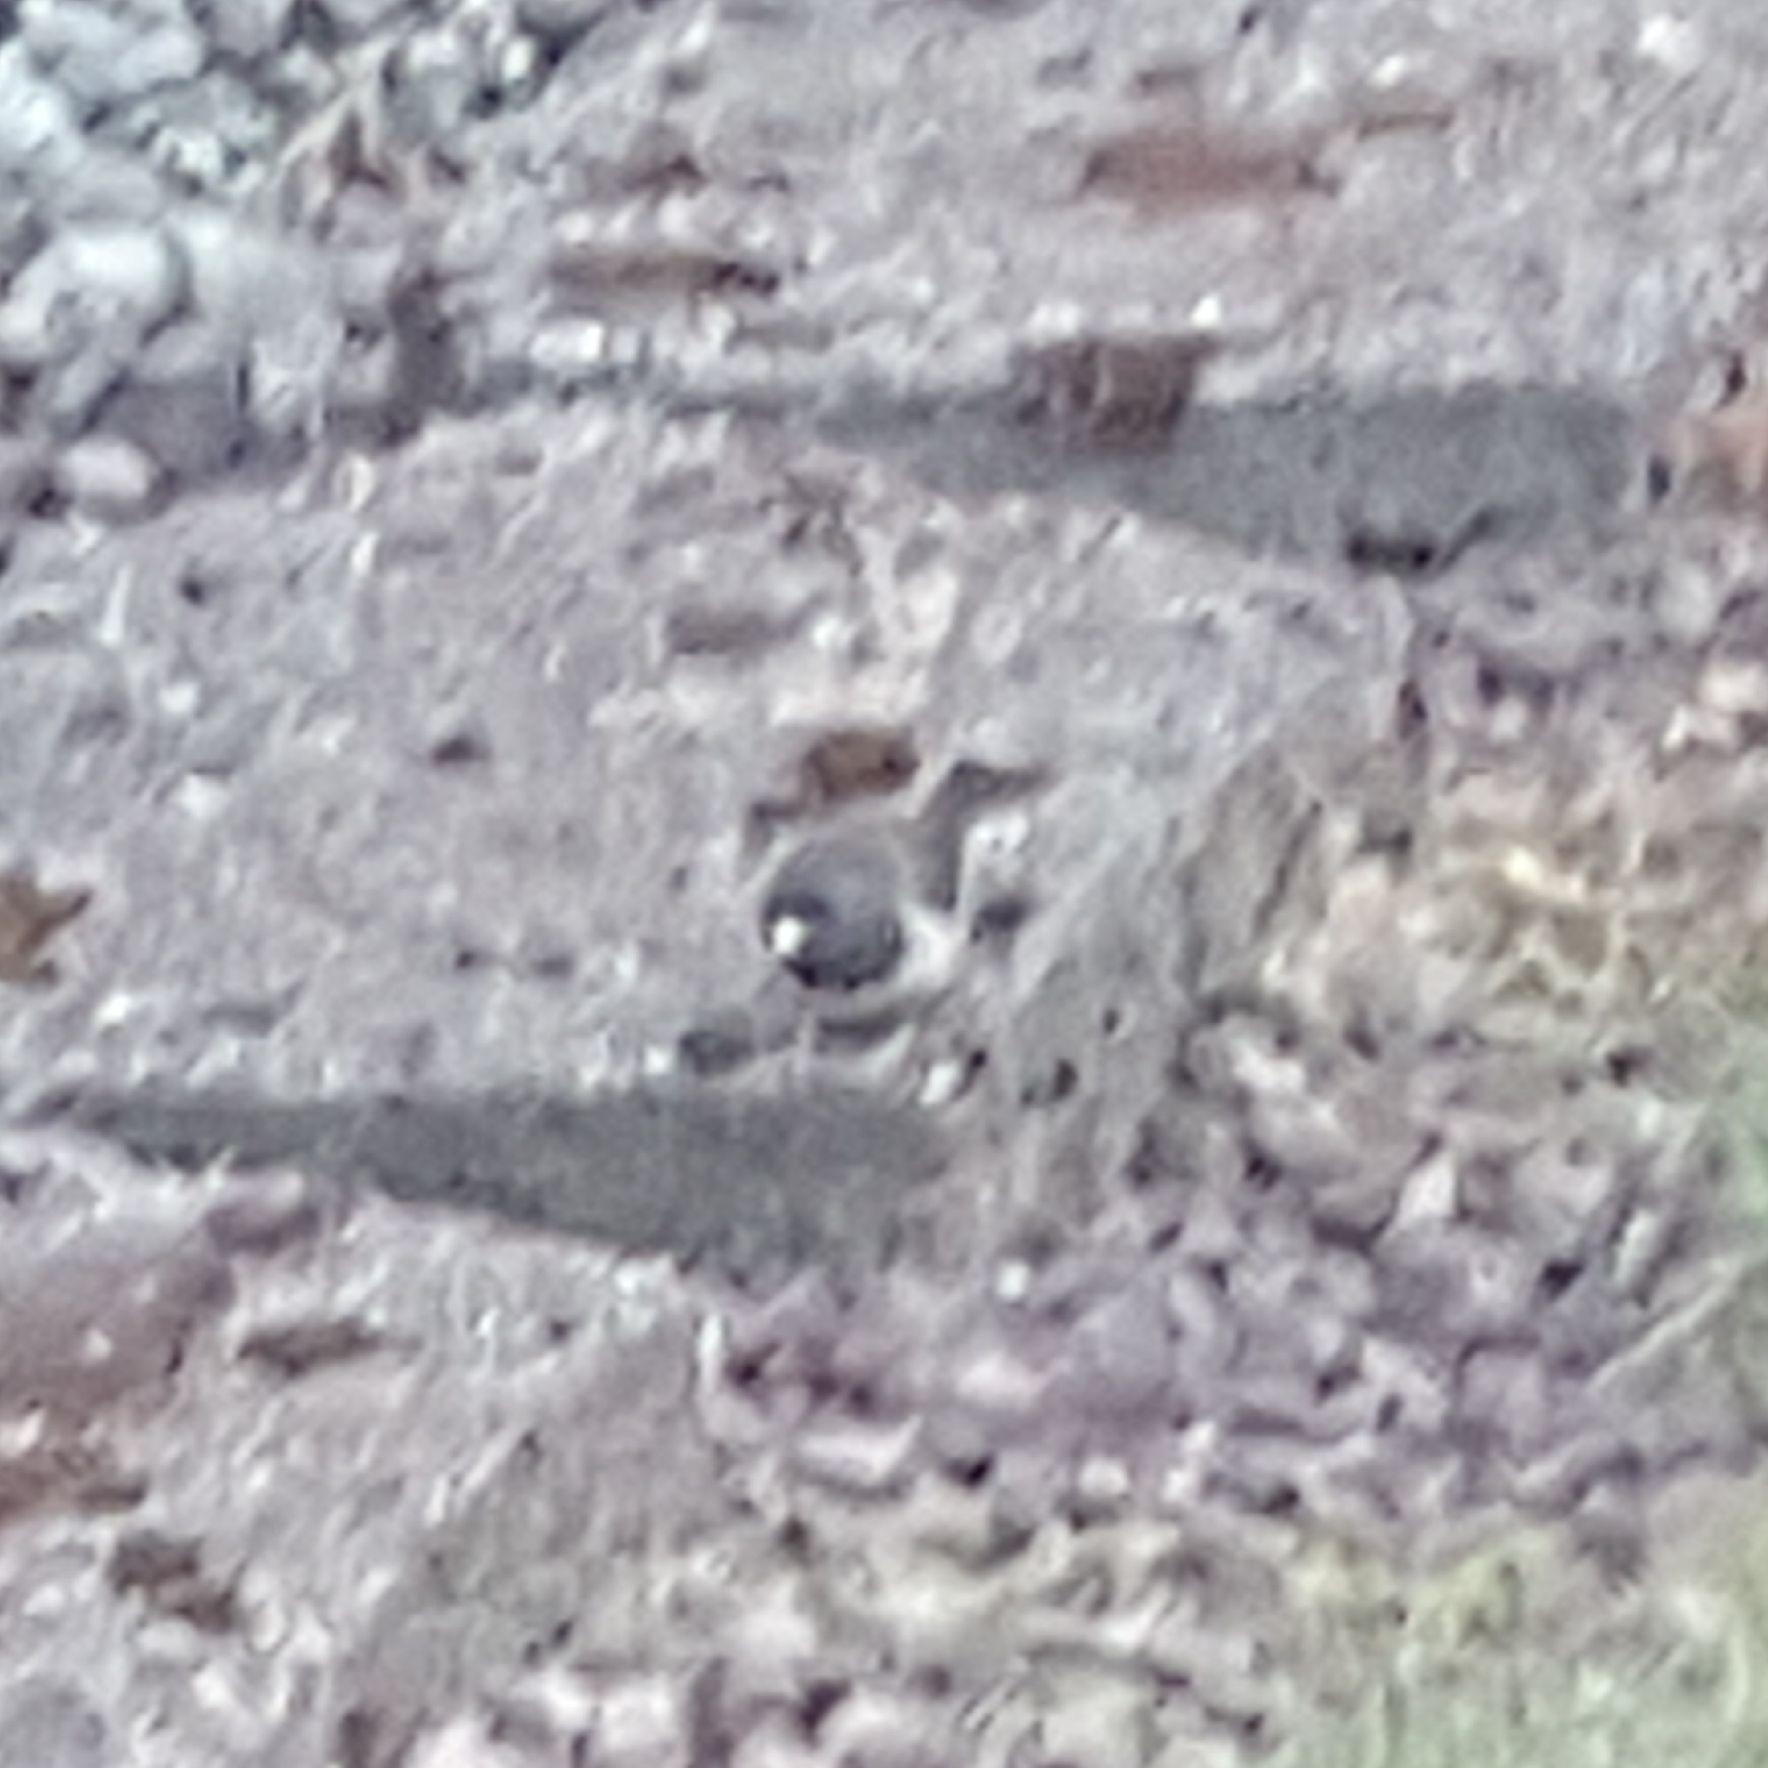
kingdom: Animalia
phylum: Chordata
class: Aves
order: Passeriformes
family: Passerellidae
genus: Junco
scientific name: Junco hyemalis
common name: Dark-eyed junco
